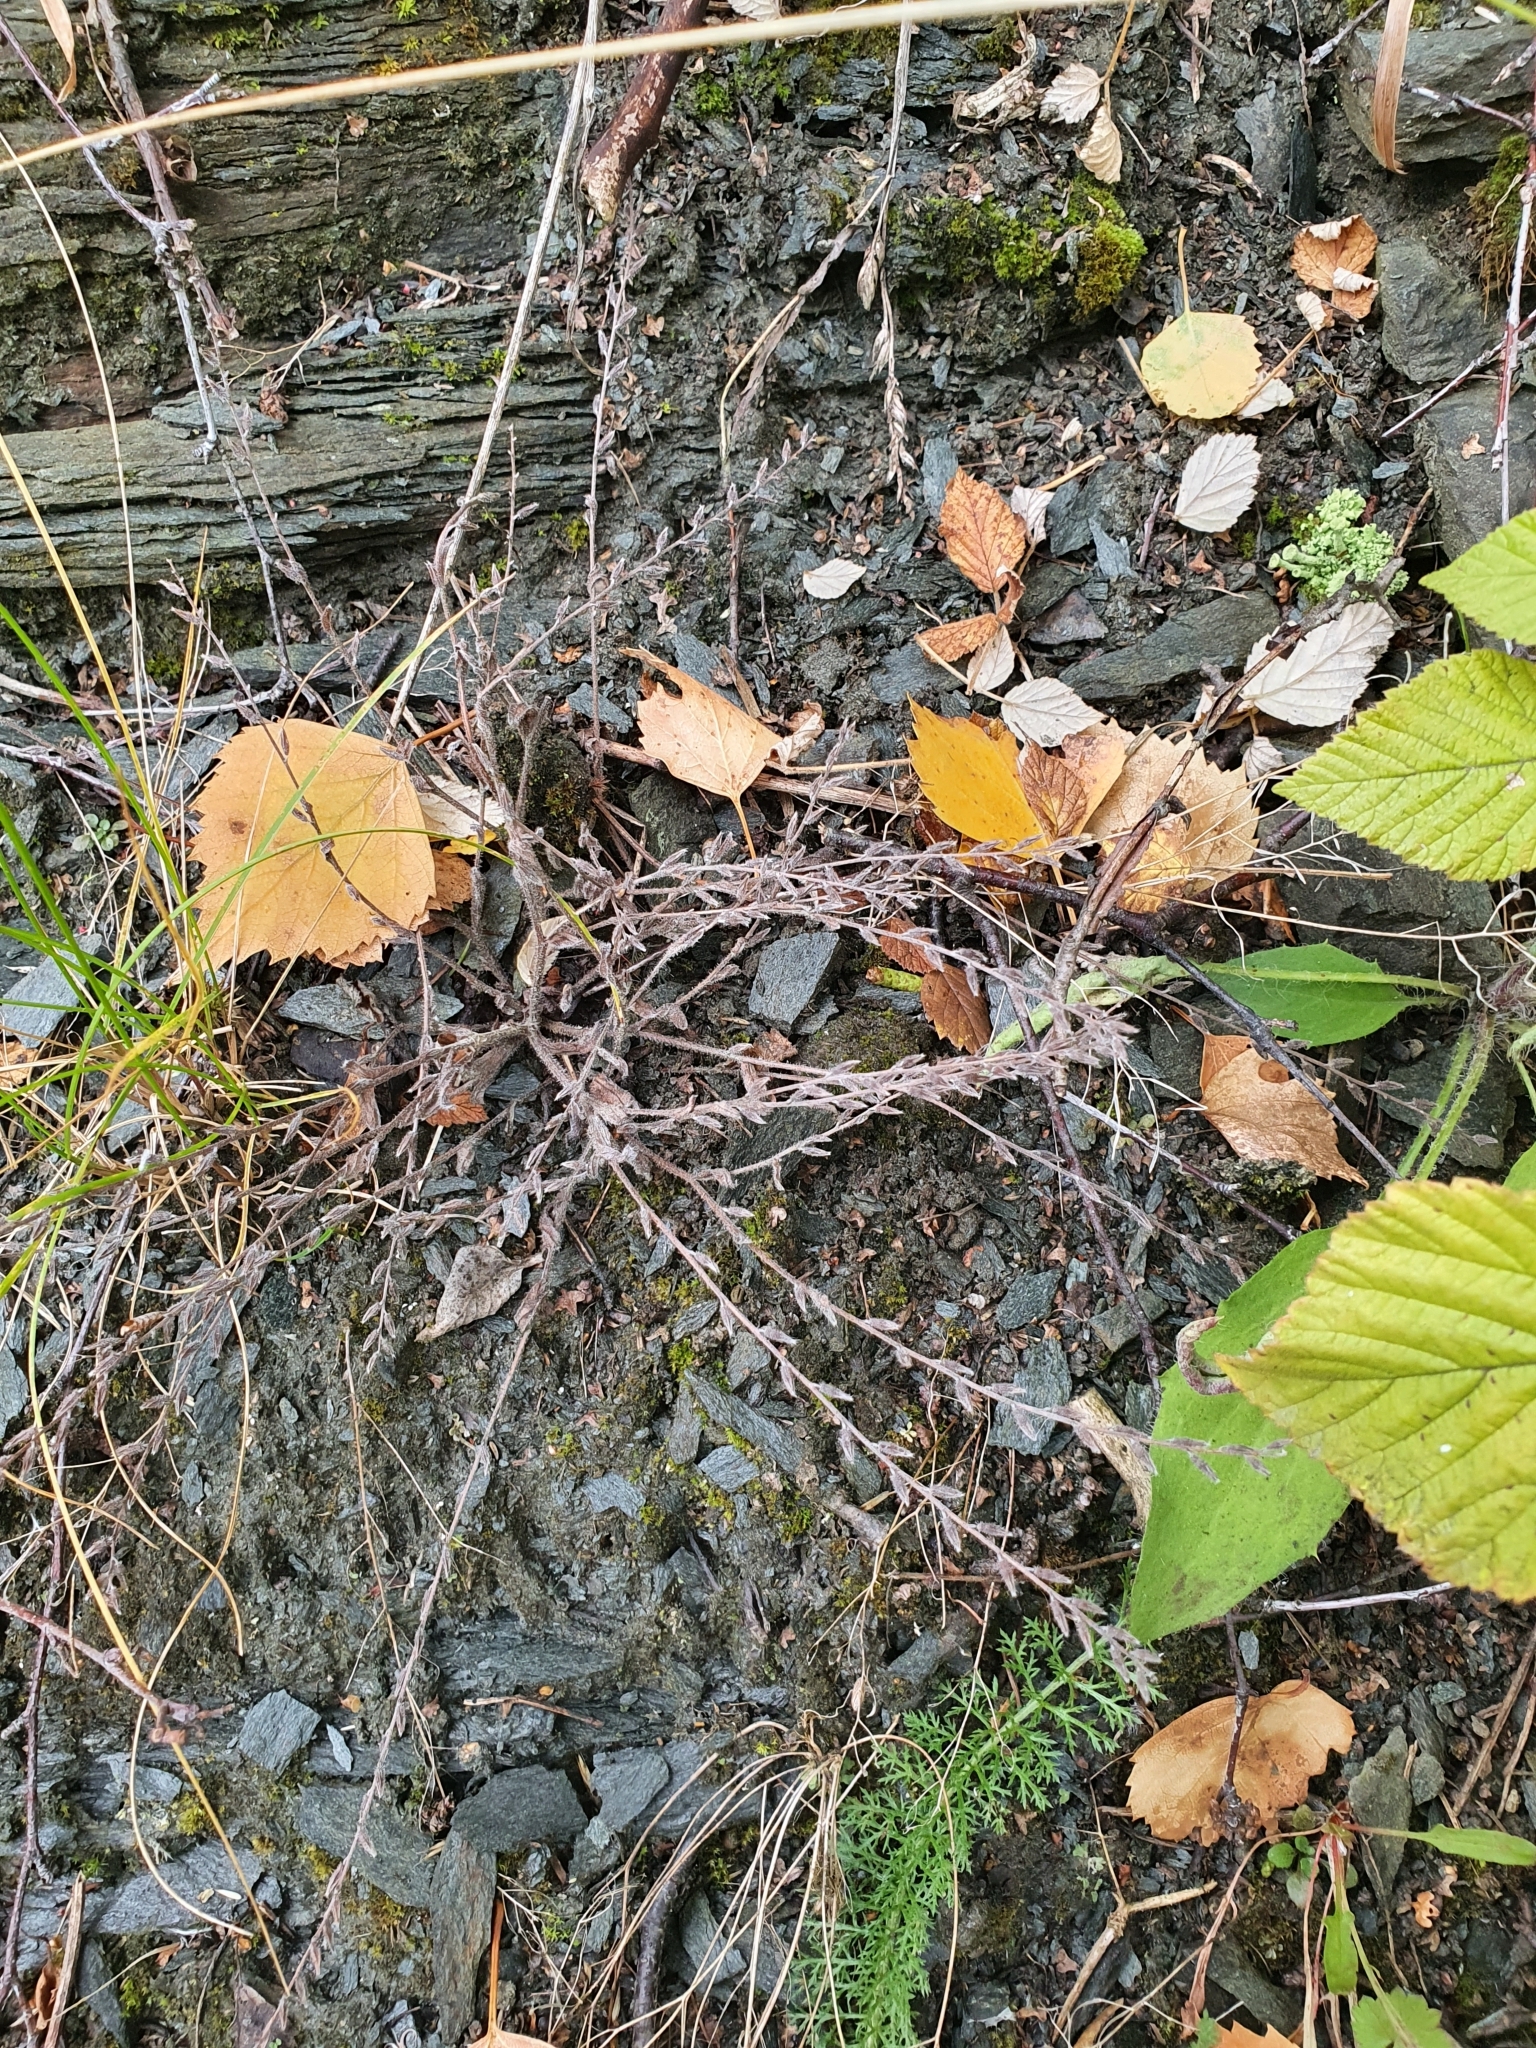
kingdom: Plantae
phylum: Tracheophyta
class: Magnoliopsida
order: Boraginales
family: Boraginaceae
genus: Myosotis
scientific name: Myosotis stricta
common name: Strict forget-me-not
